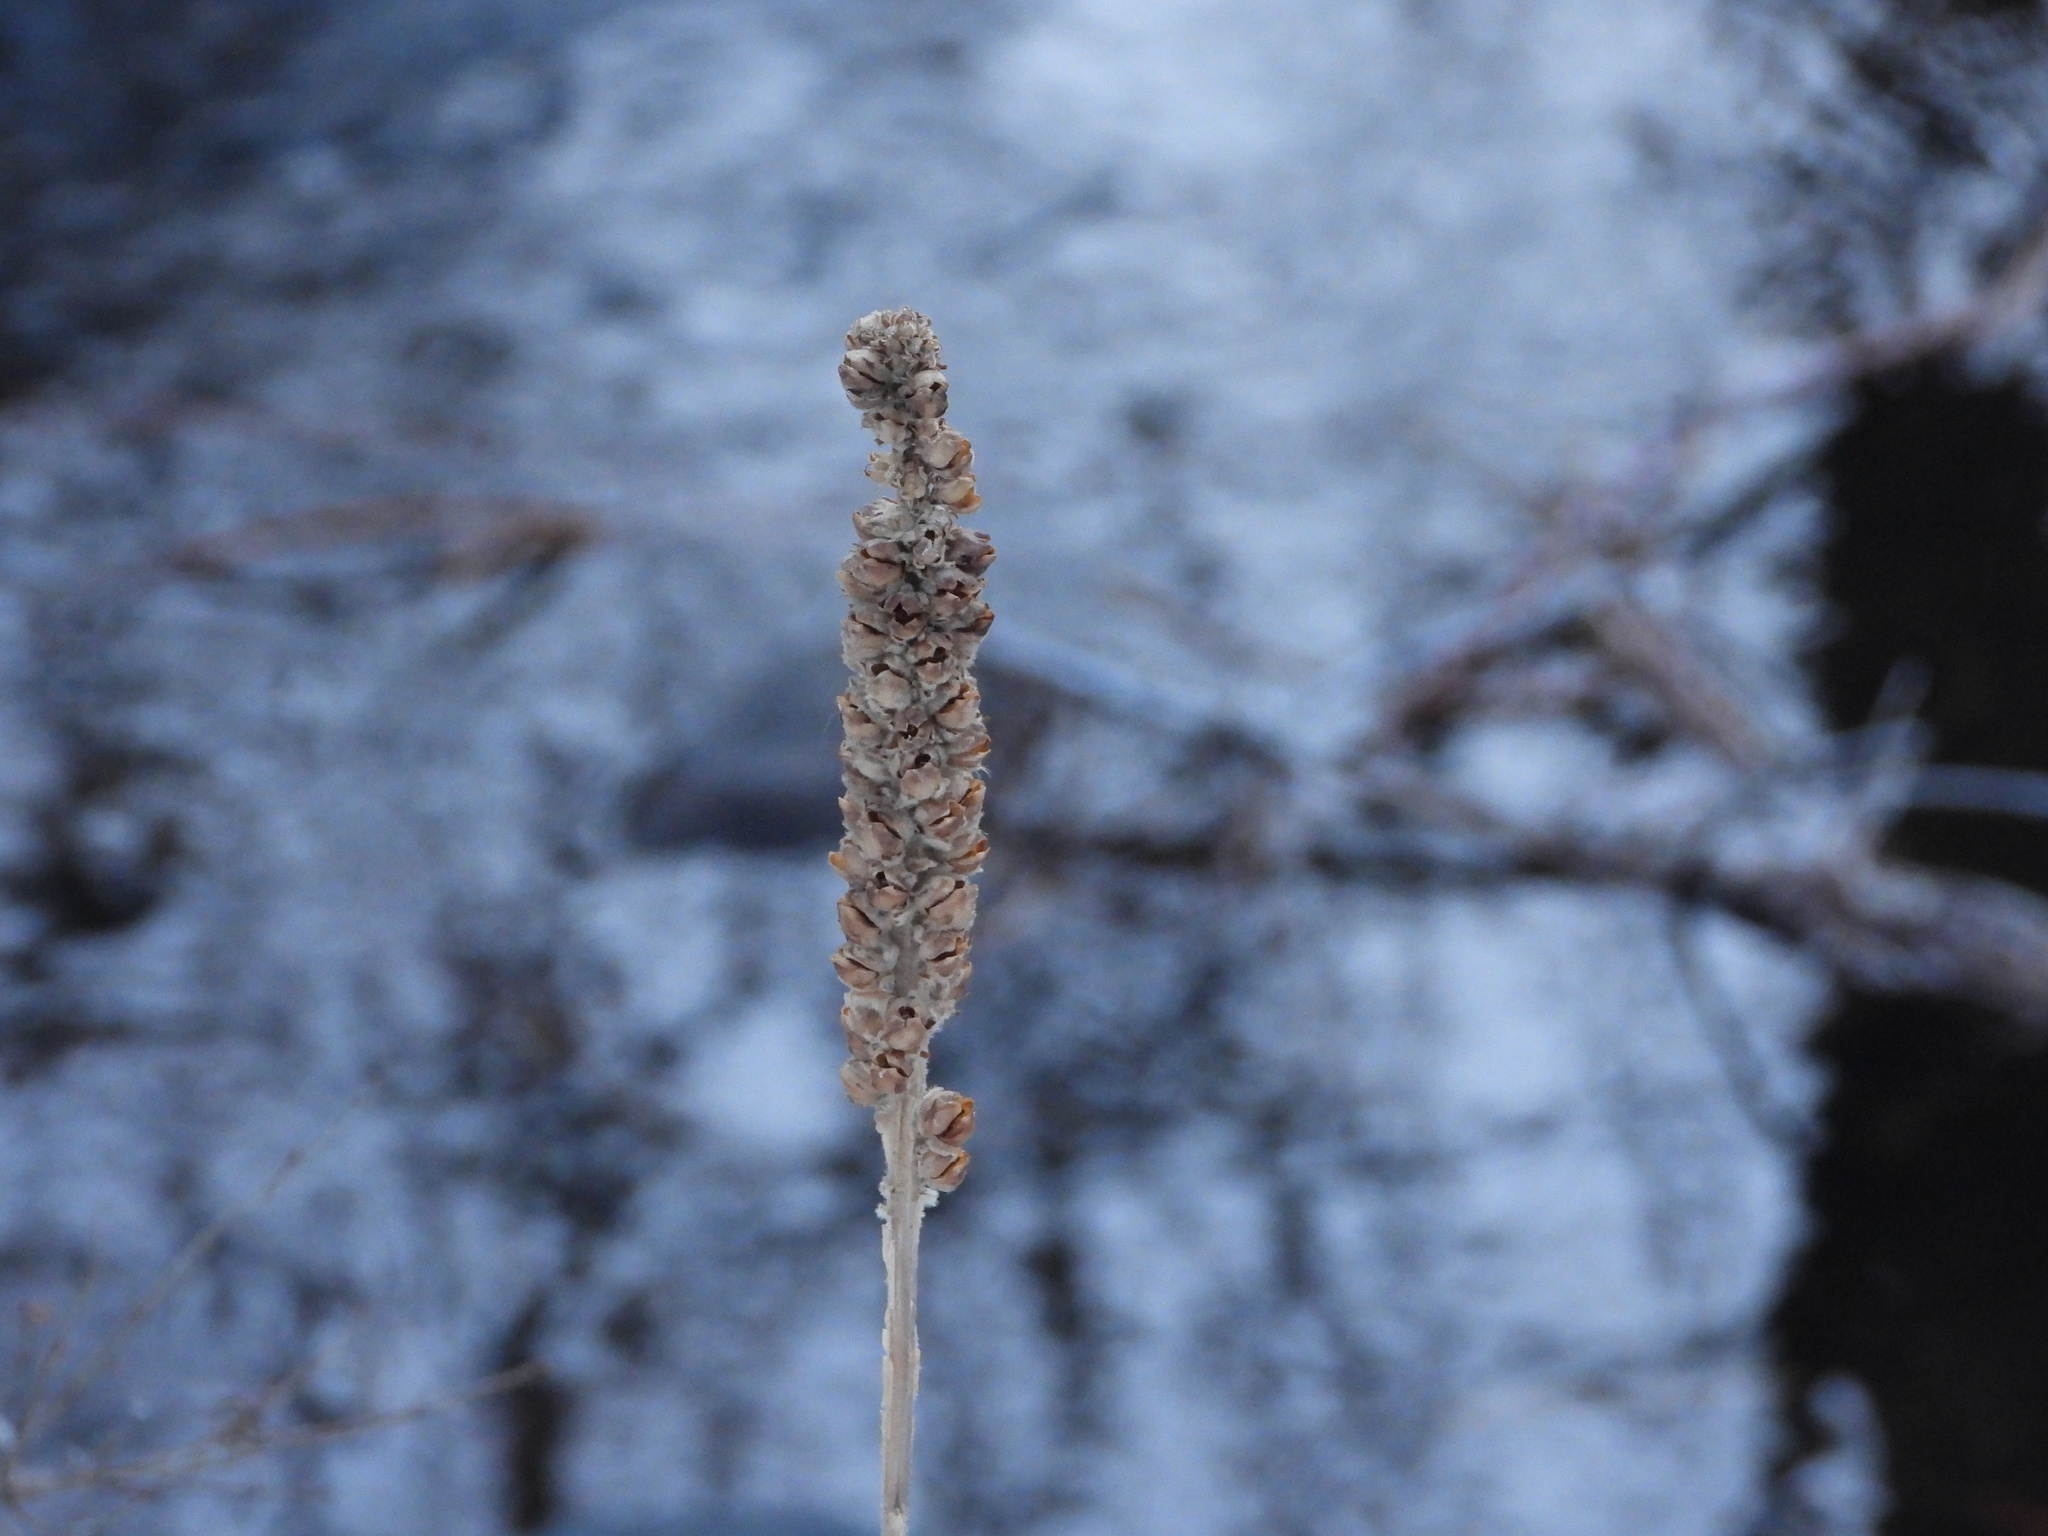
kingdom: Plantae
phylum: Tracheophyta
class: Magnoliopsida
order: Lamiales
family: Scrophulariaceae
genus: Verbascum
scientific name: Verbascum thapsus
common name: Common mullein
